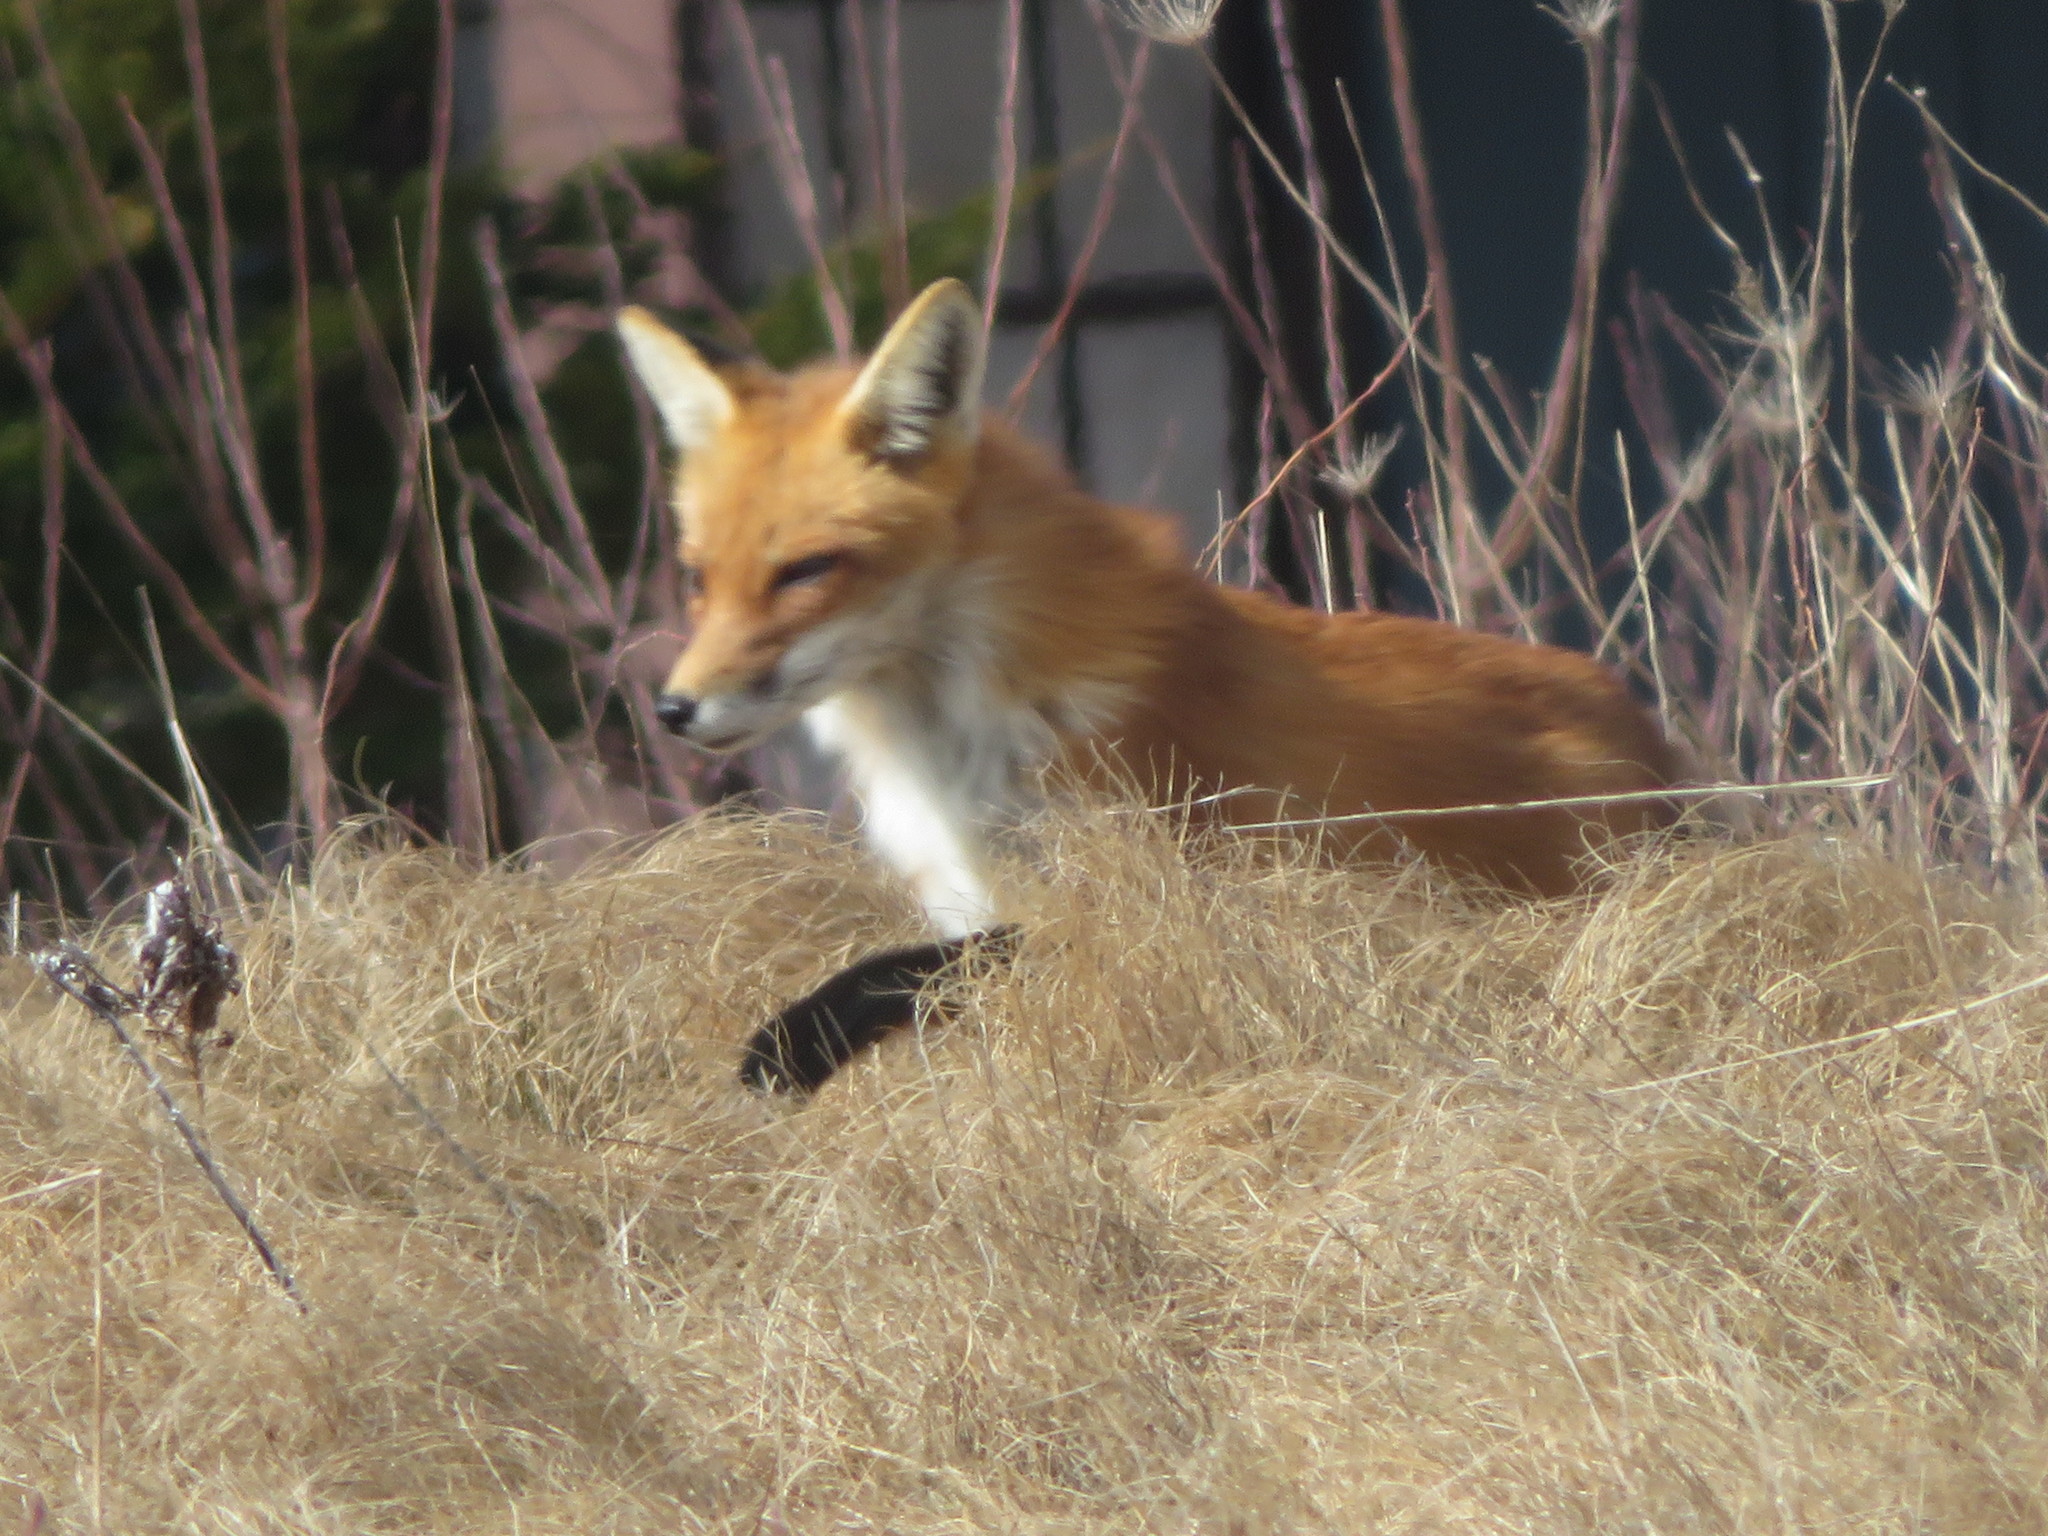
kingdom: Animalia
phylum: Chordata
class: Mammalia
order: Carnivora
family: Canidae
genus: Vulpes
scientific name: Vulpes vulpes
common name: Red fox
